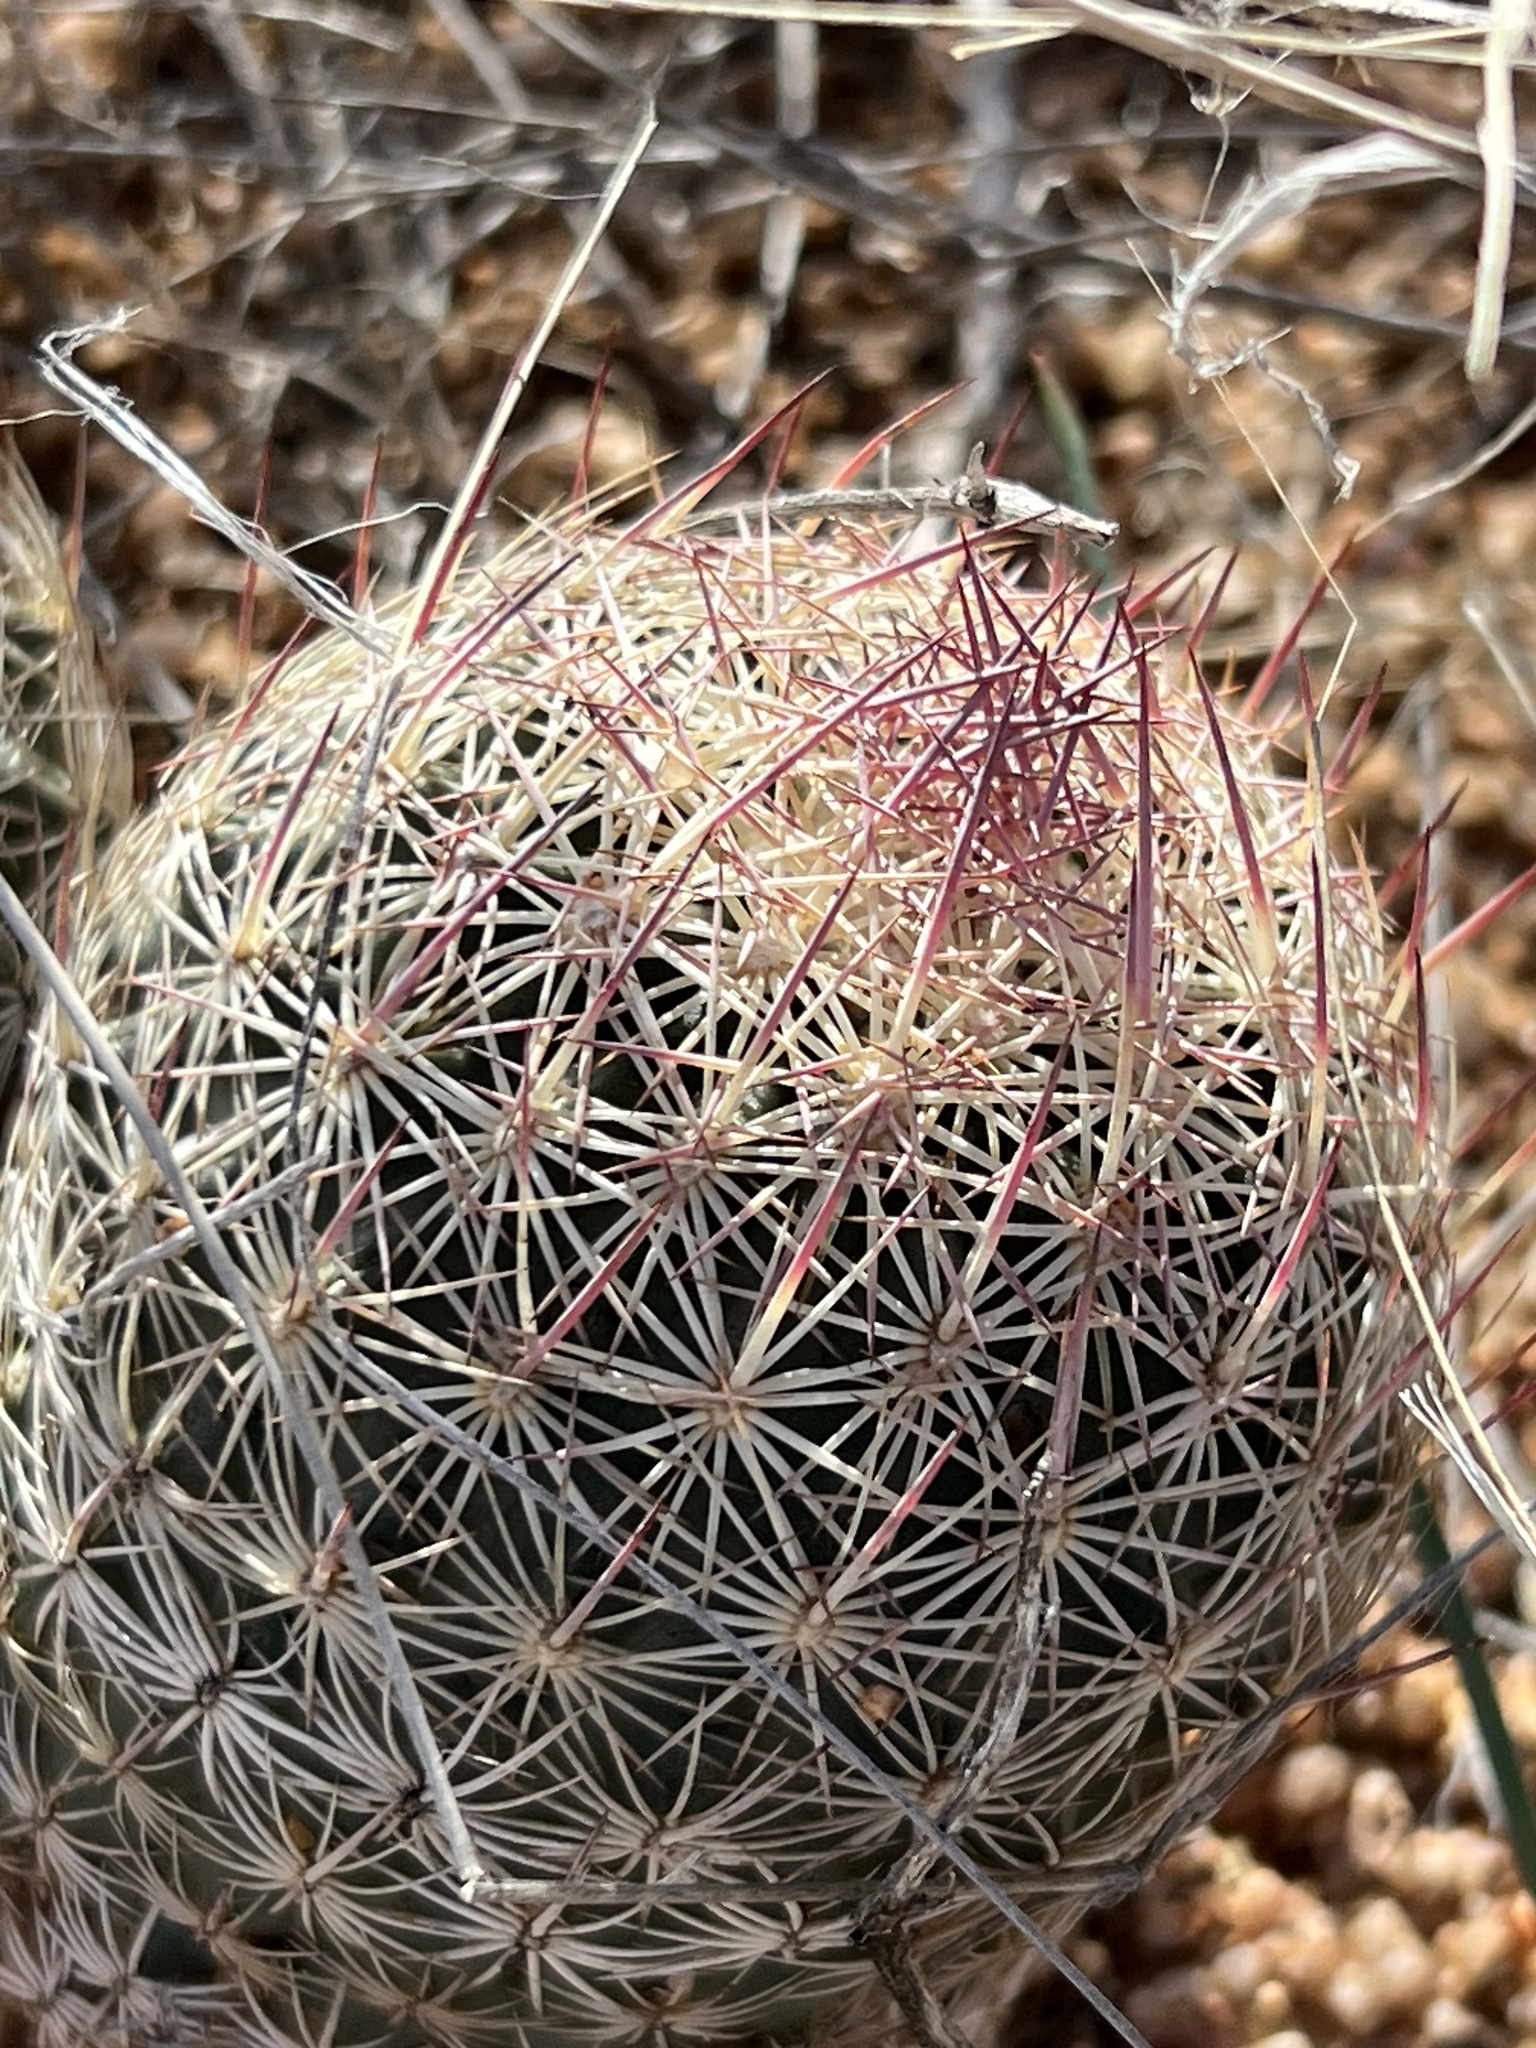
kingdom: Plantae
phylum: Tracheophyta
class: Magnoliopsida
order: Caryophyllales
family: Cactaceae
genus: Sclerocactus
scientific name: Sclerocactus johnsonii
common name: Eight-spine fishhook cactus
